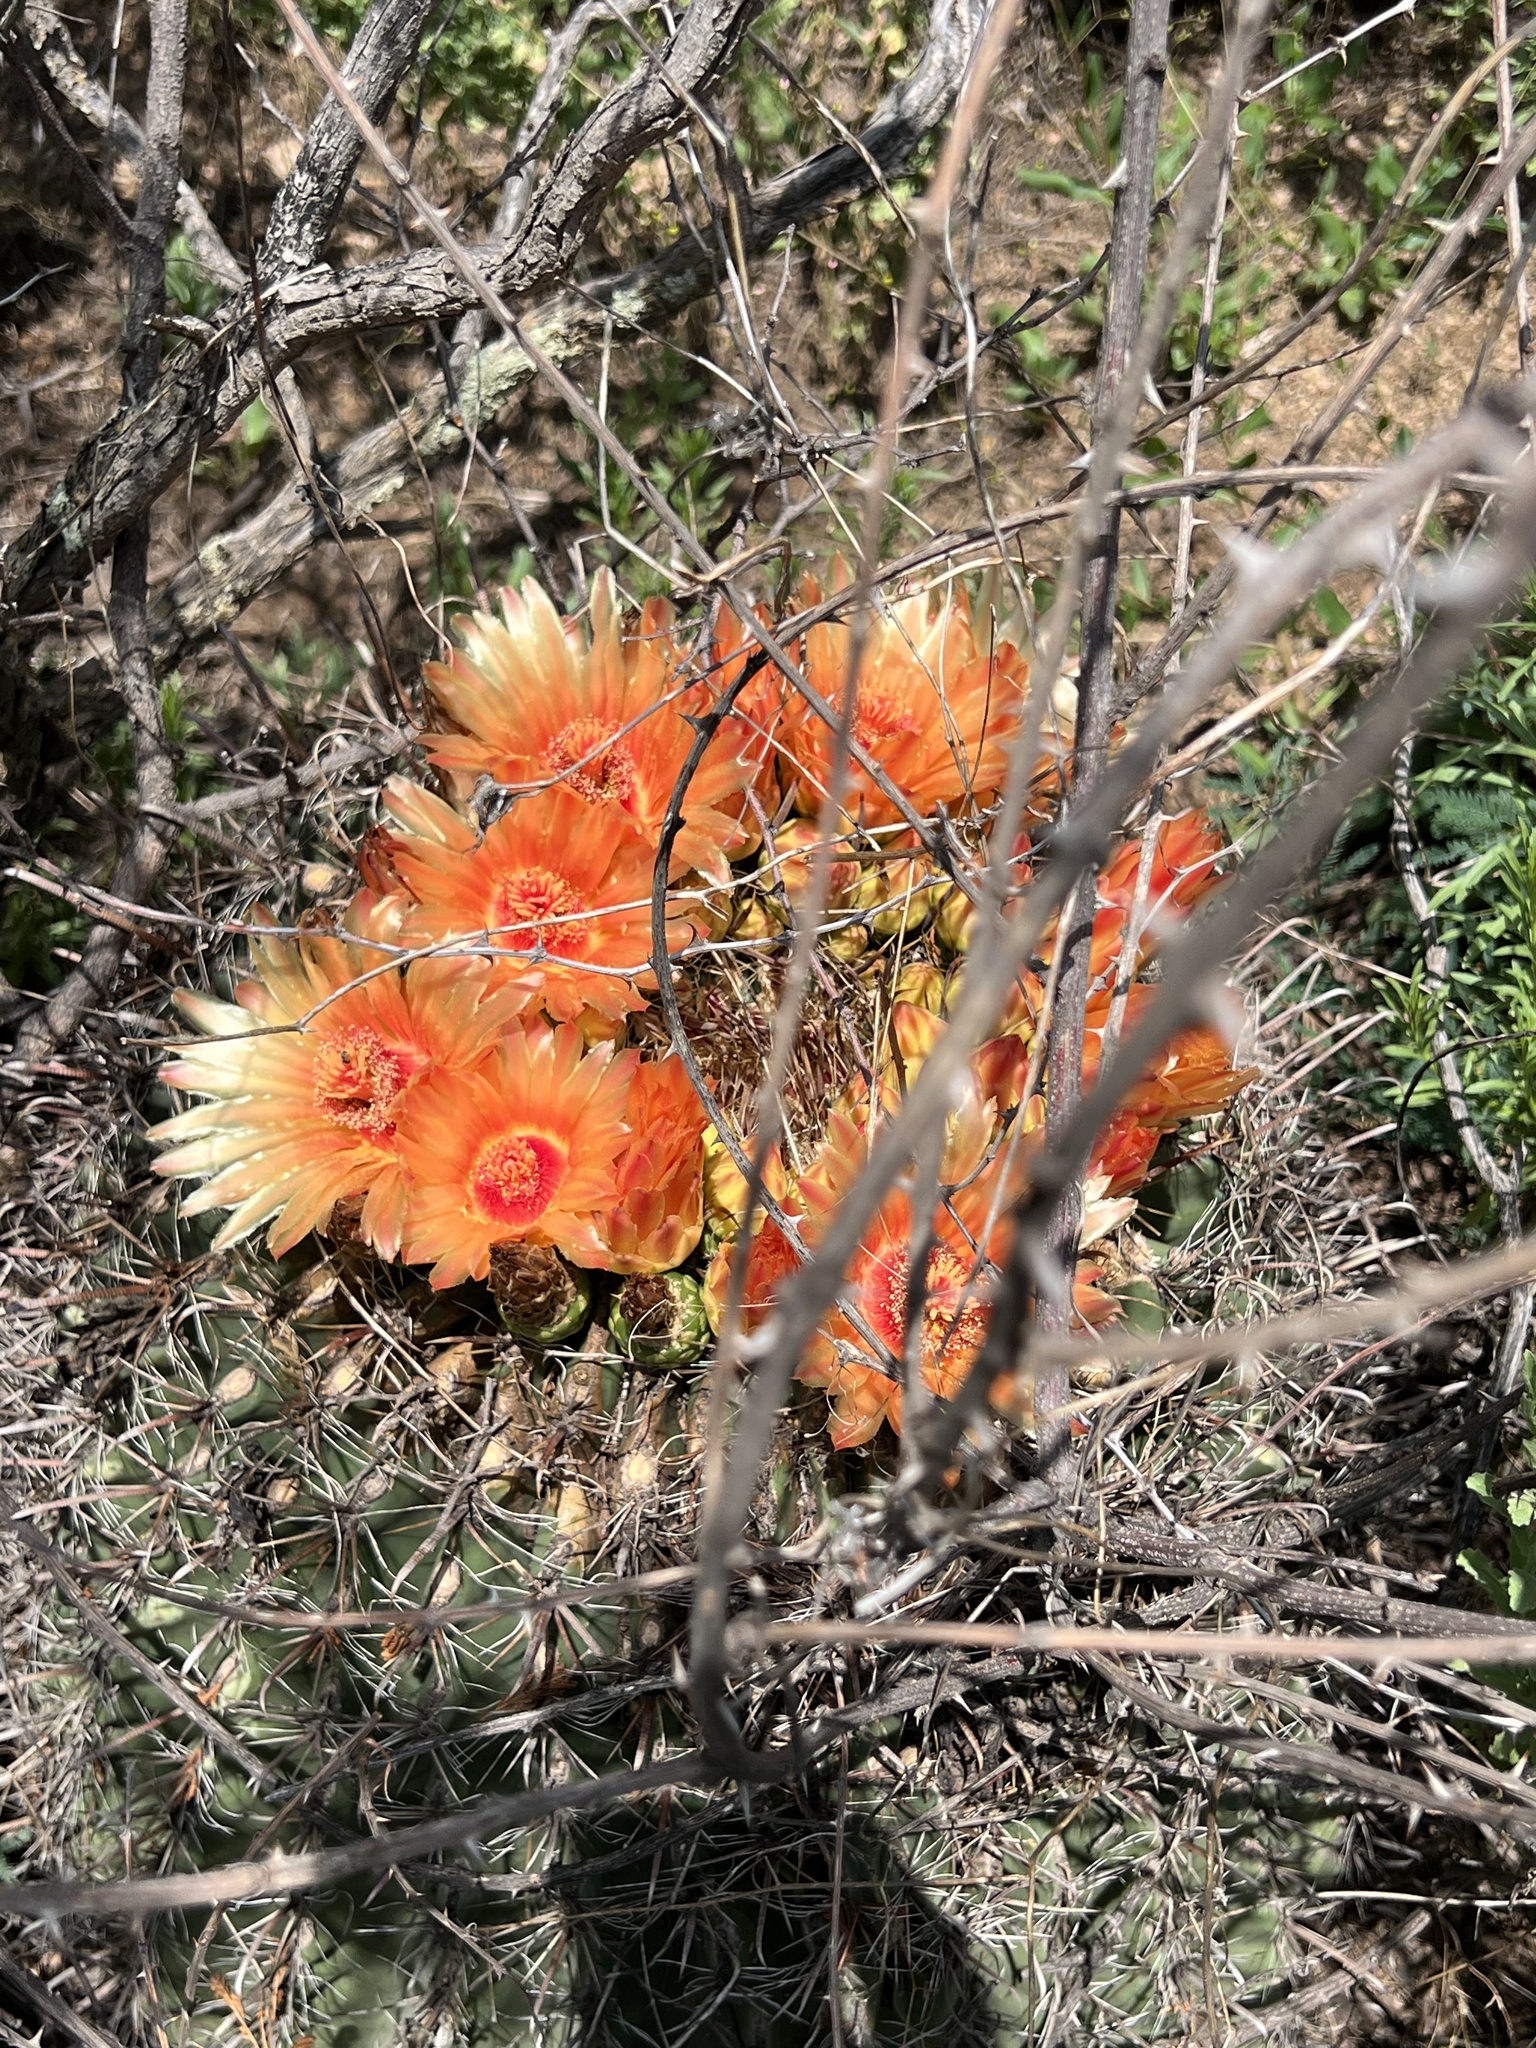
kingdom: Plantae
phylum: Tracheophyta
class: Magnoliopsida
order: Caryophyllales
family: Cactaceae
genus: Ferocactus
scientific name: Ferocactus wislizeni
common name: Candy barrel cactus
